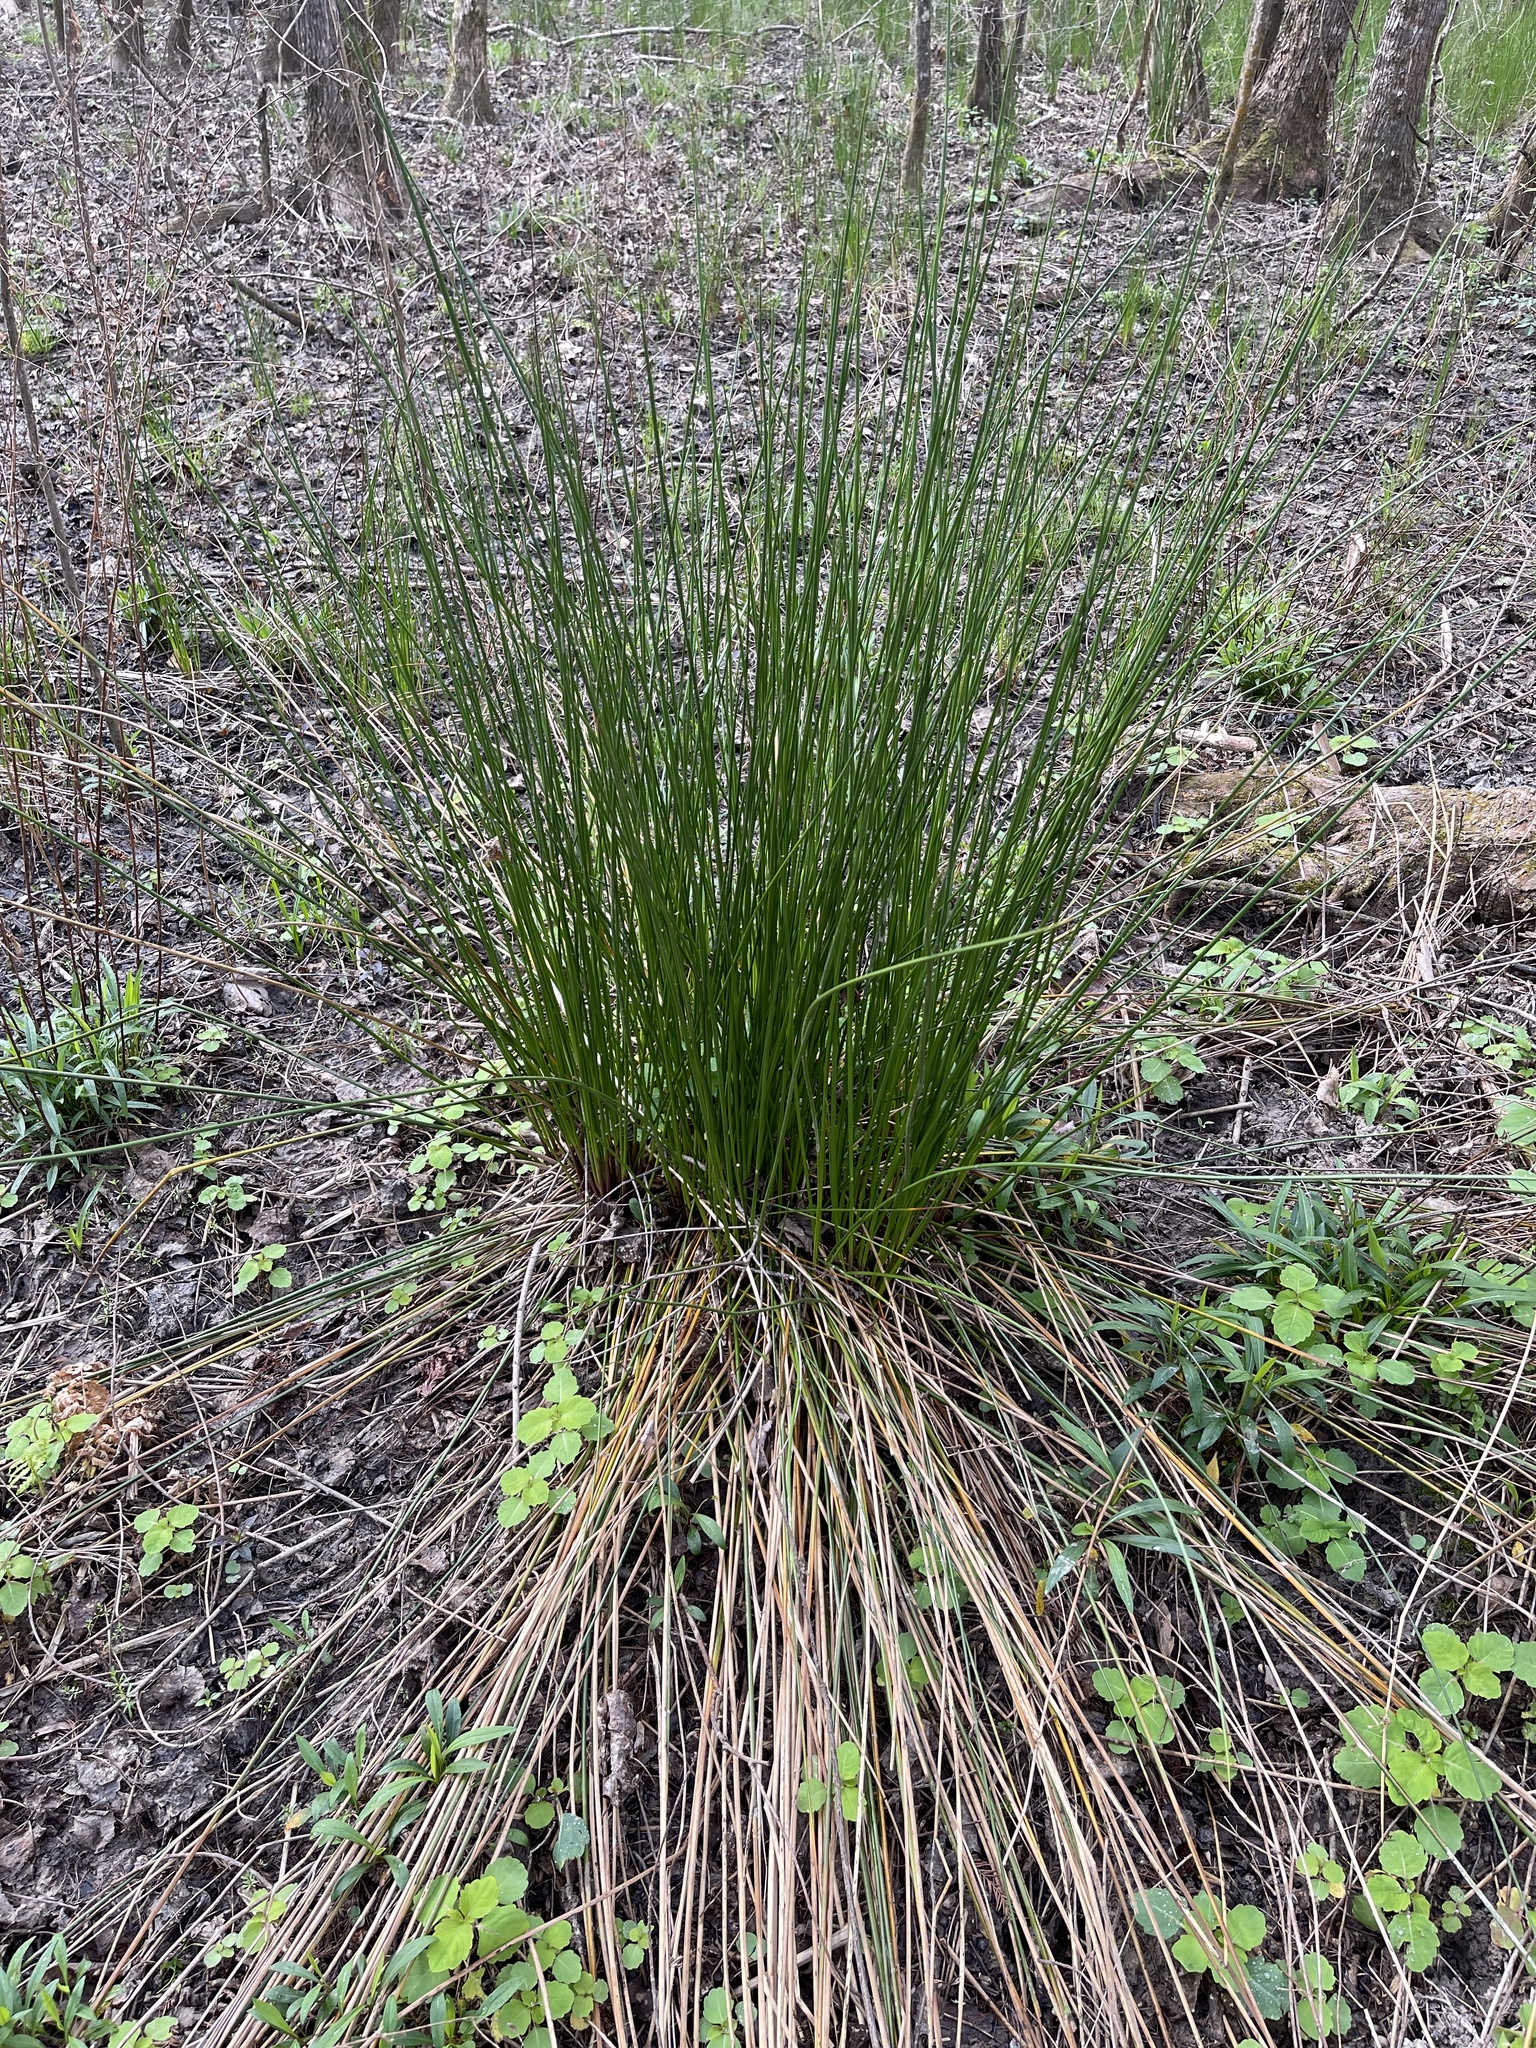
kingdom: Plantae
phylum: Tracheophyta
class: Liliopsida
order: Poales
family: Juncaceae
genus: Juncus
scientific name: Juncus effusus
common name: Soft rush
